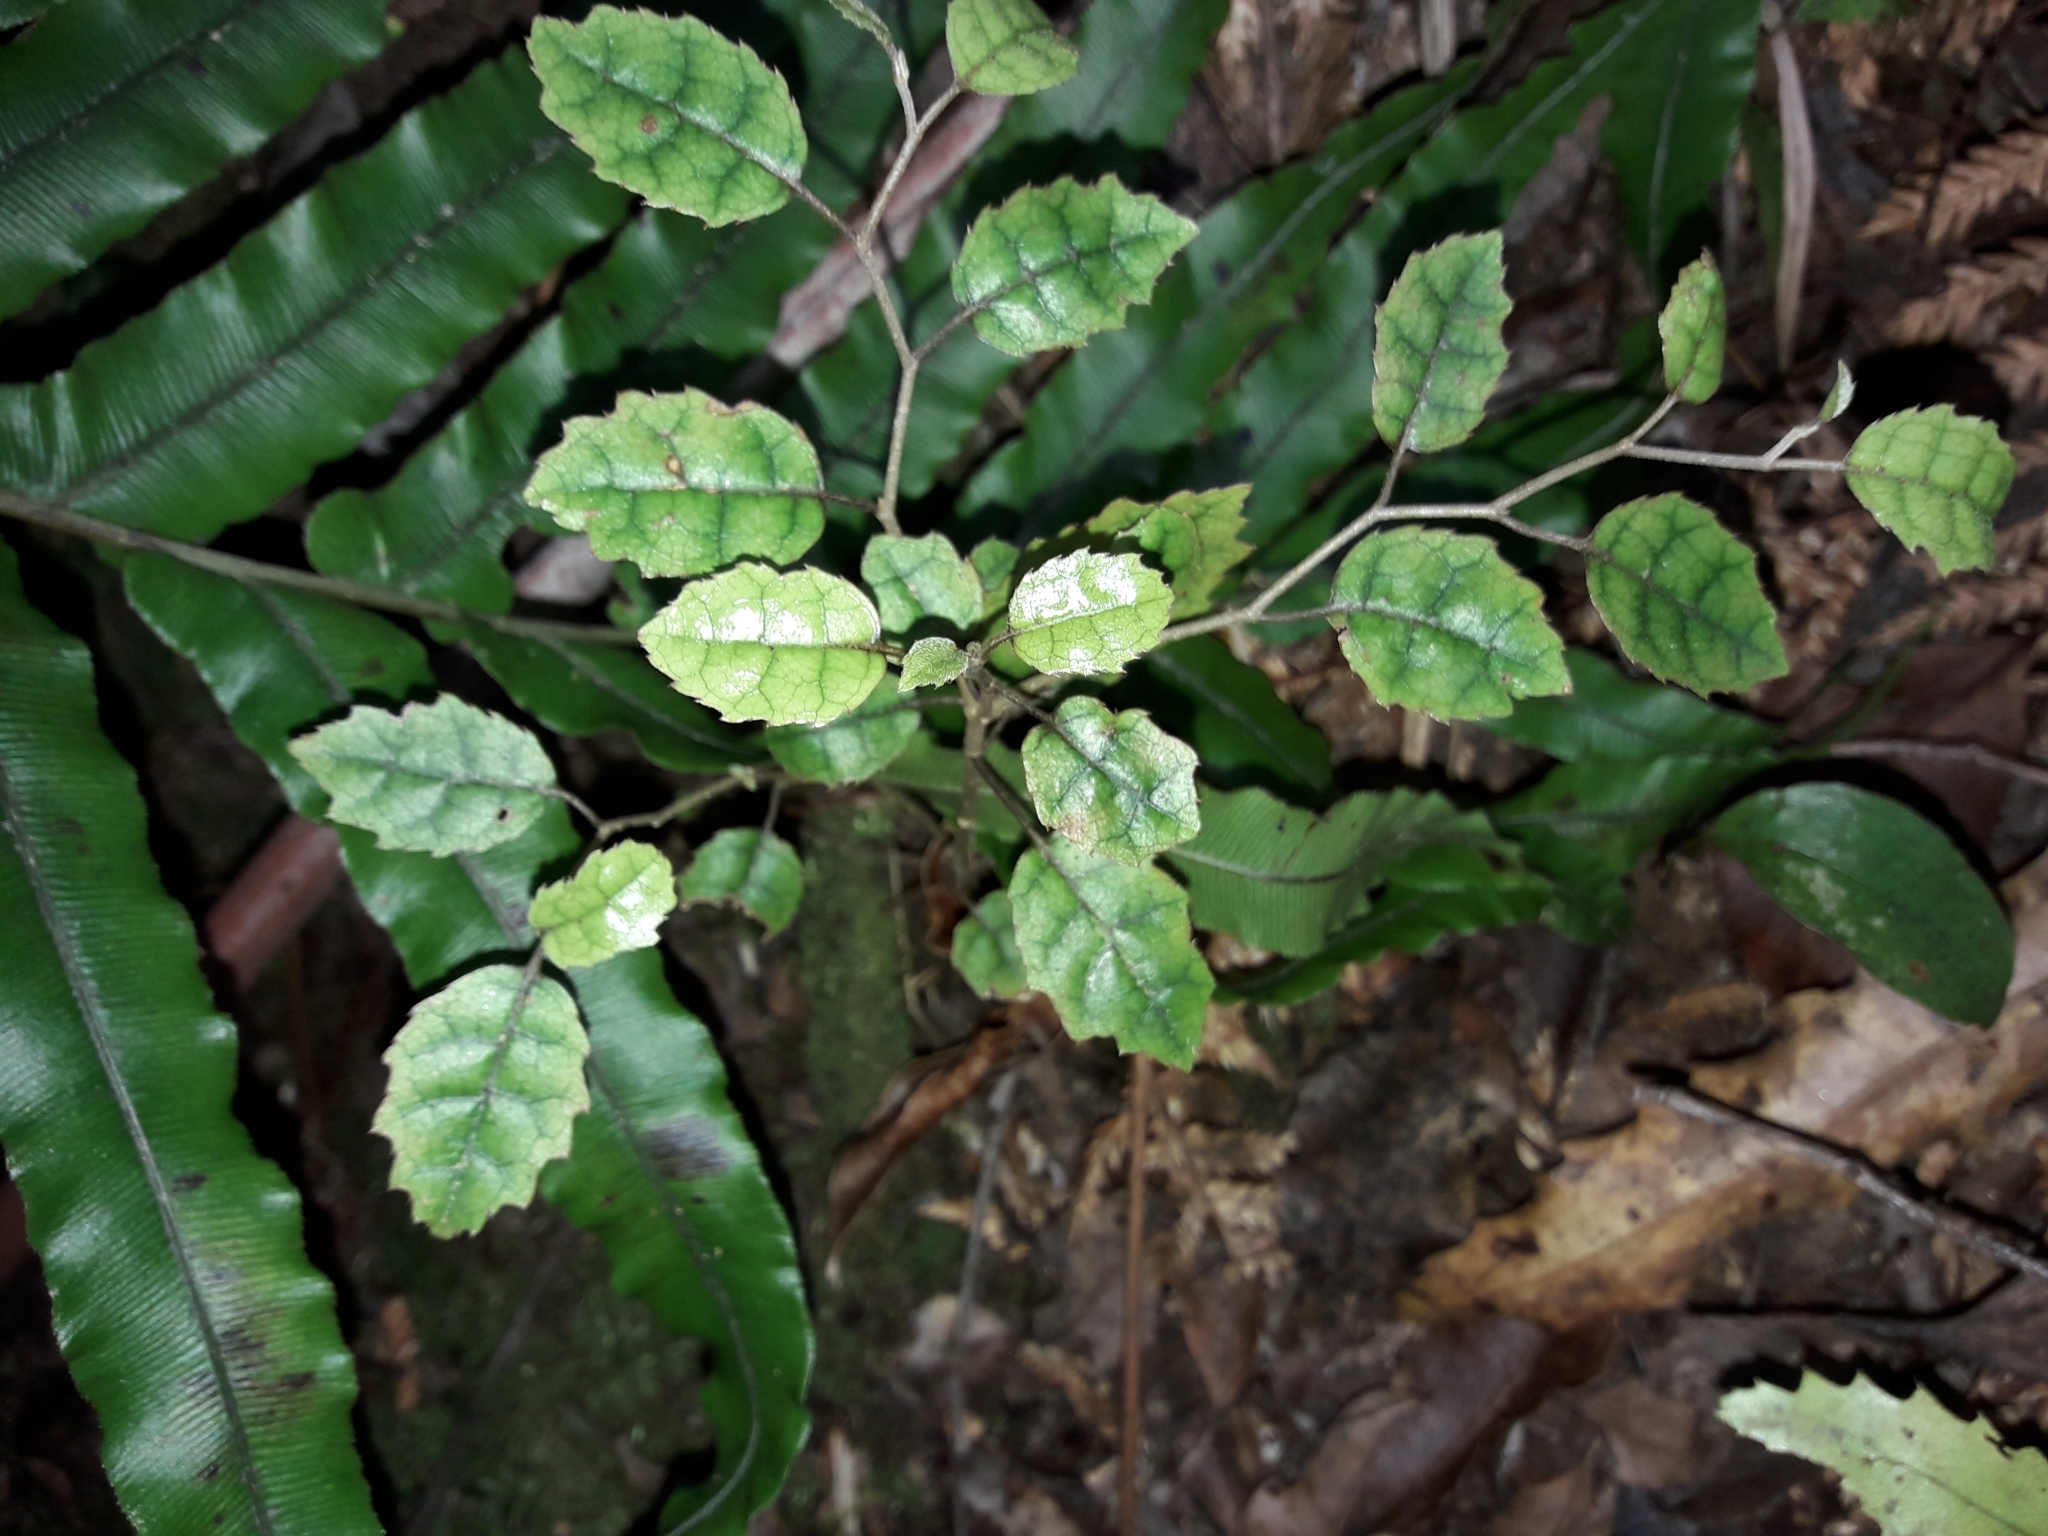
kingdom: Plantae
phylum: Tracheophyta
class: Magnoliopsida
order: Asterales
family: Rousseaceae
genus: Carpodetus
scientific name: Carpodetus serratus
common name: White mapau
